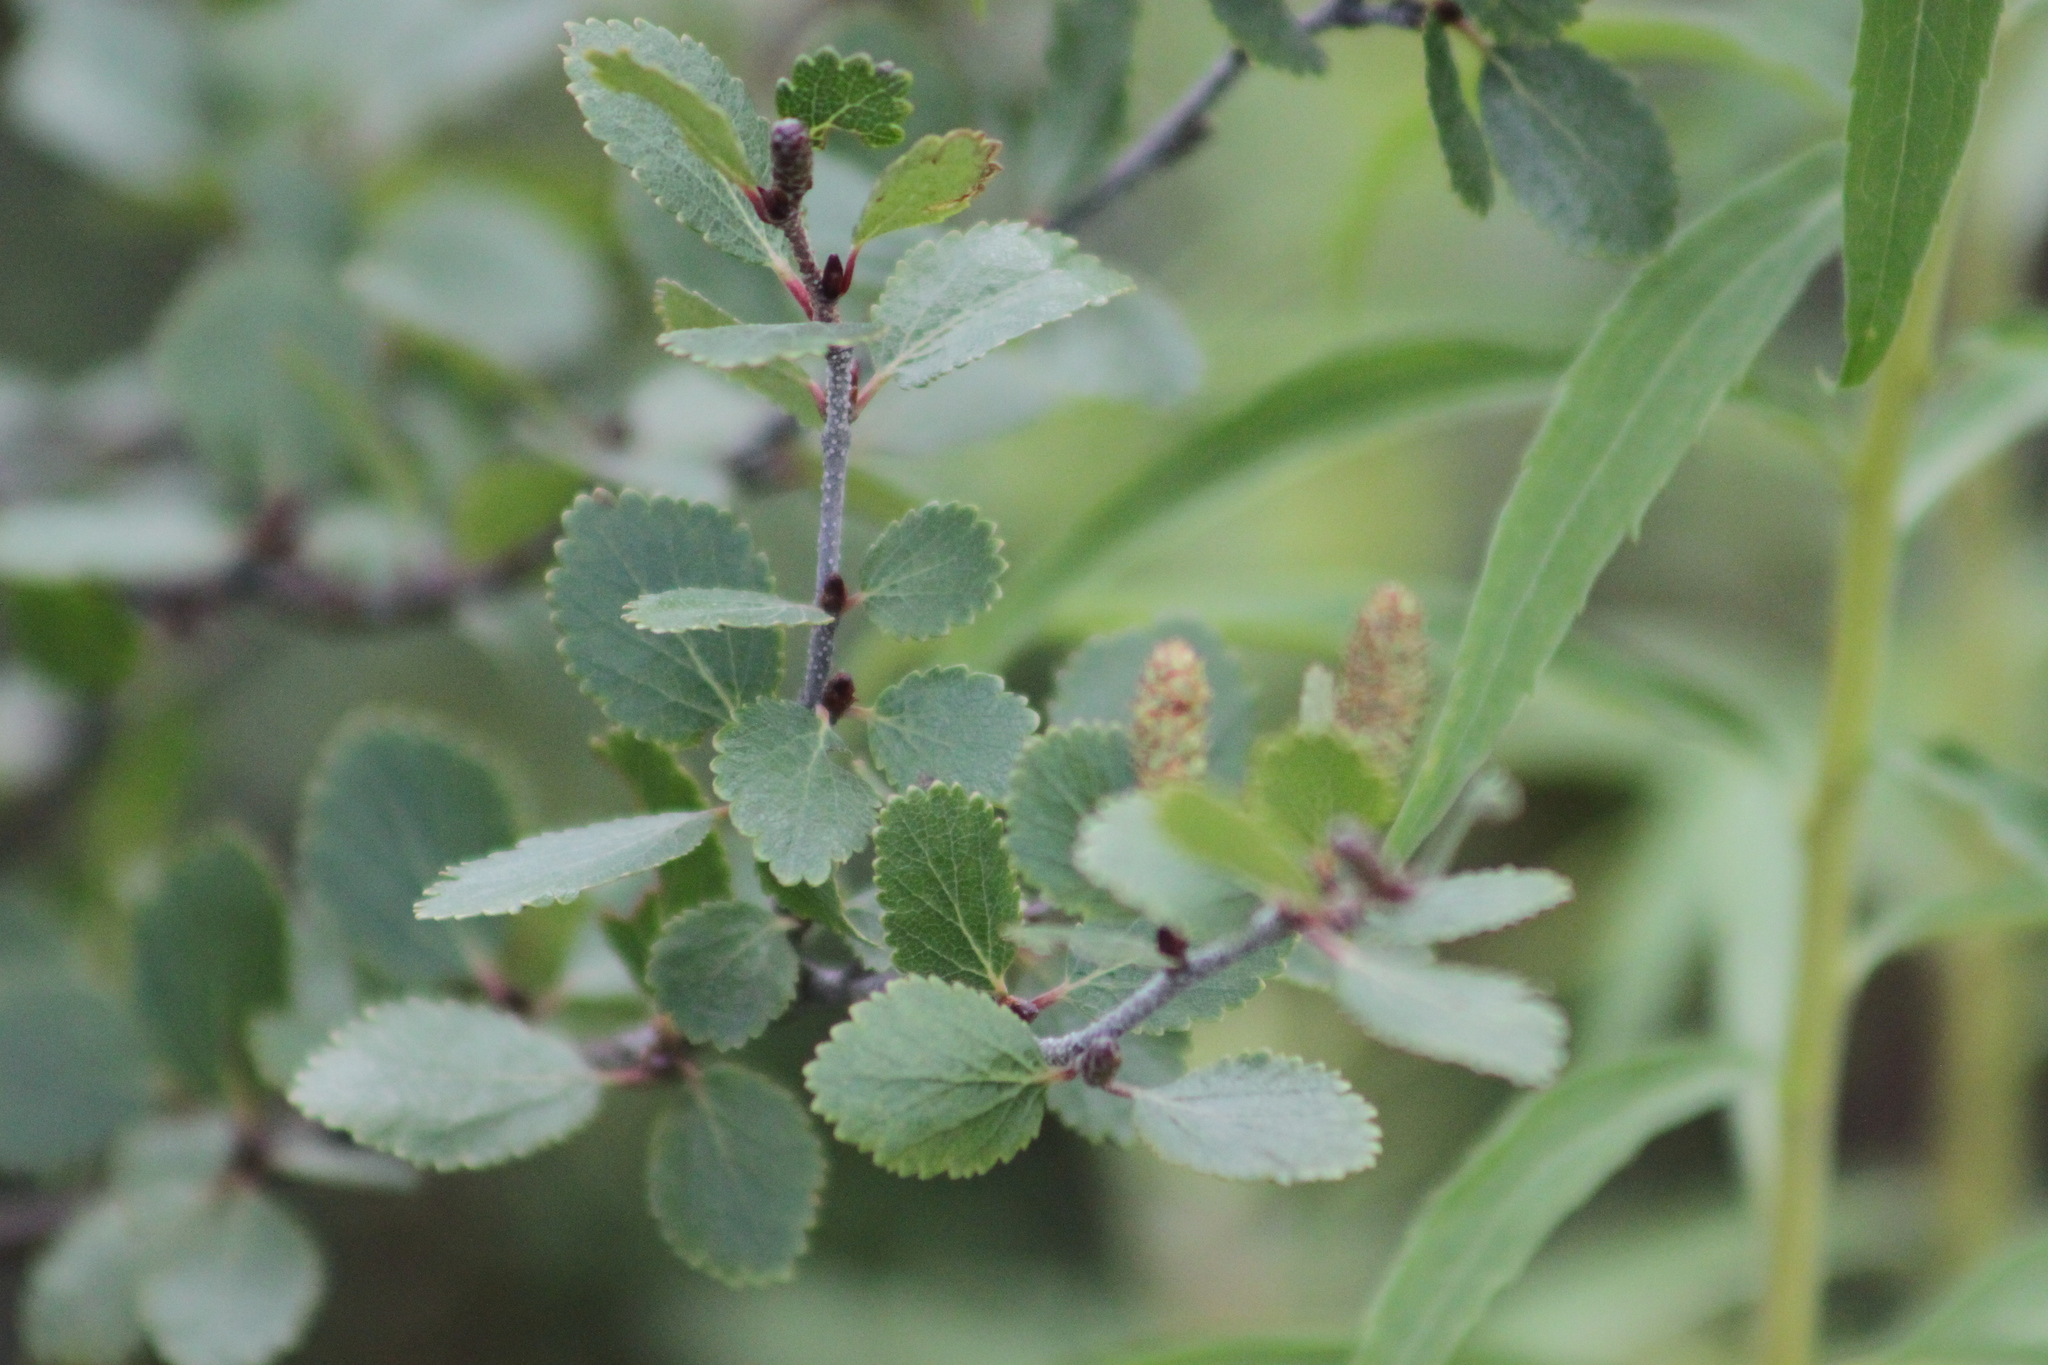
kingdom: Plantae
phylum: Tracheophyta
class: Magnoliopsida
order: Fagales
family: Betulaceae
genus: Betula
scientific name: Betula glandulosa
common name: Dwarf birch
